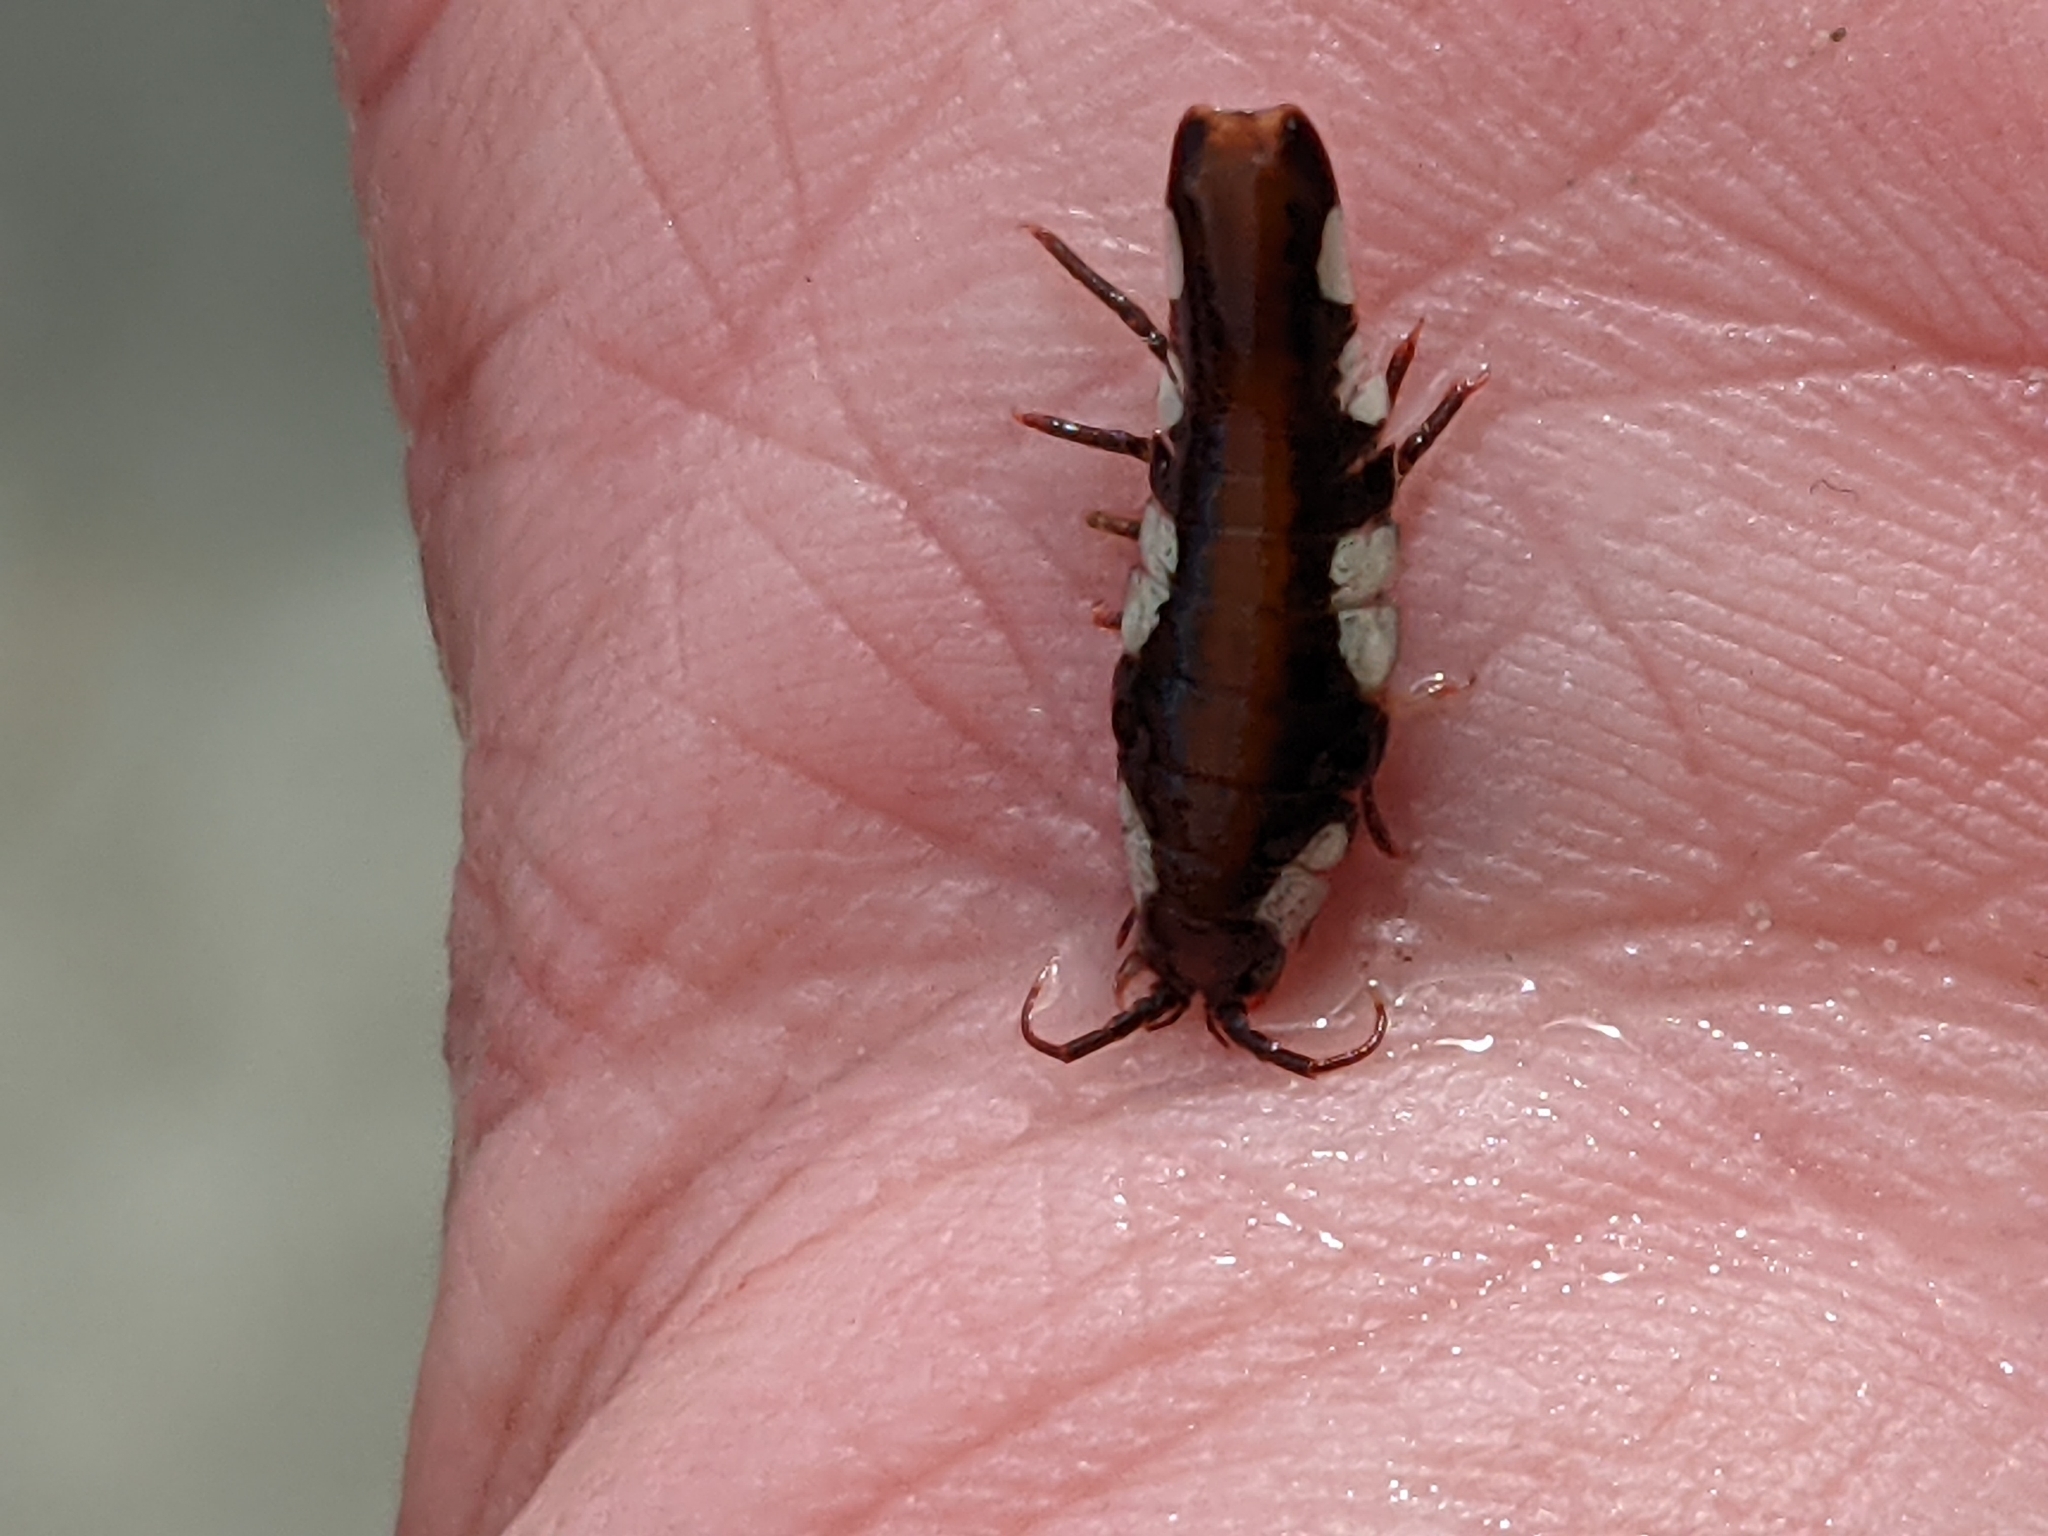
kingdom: Animalia
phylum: Arthropoda
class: Malacostraca
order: Isopoda
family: Idoteidae
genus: Idotea
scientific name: Idotea emarginata
